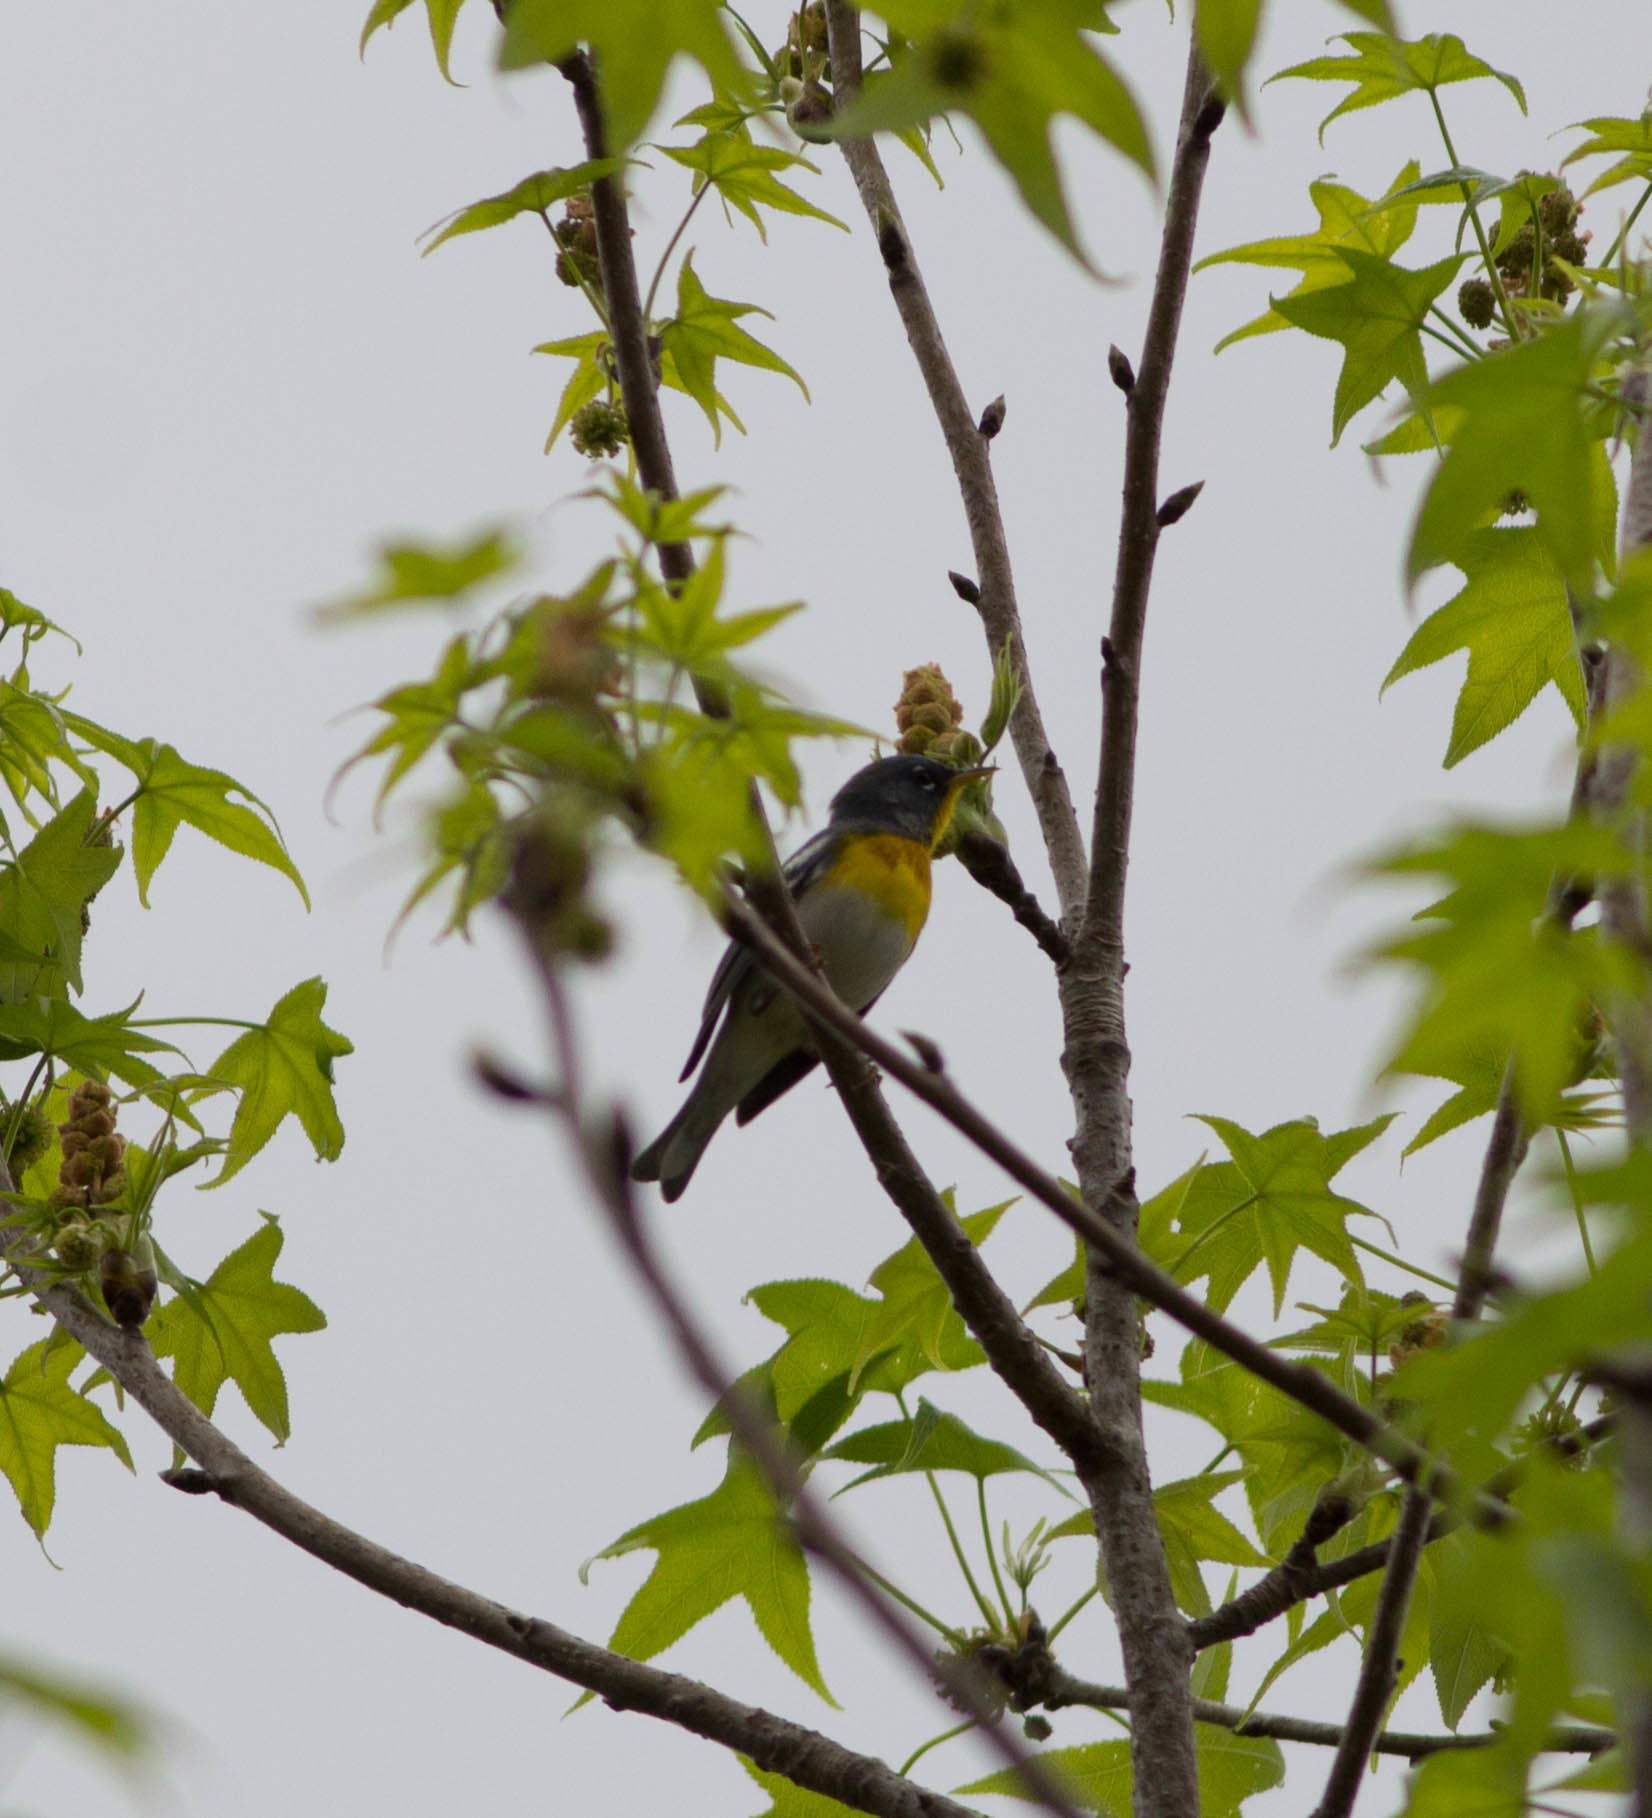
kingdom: Animalia
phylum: Chordata
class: Aves
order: Passeriformes
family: Parulidae
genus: Setophaga
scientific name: Setophaga americana
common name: Northern parula
